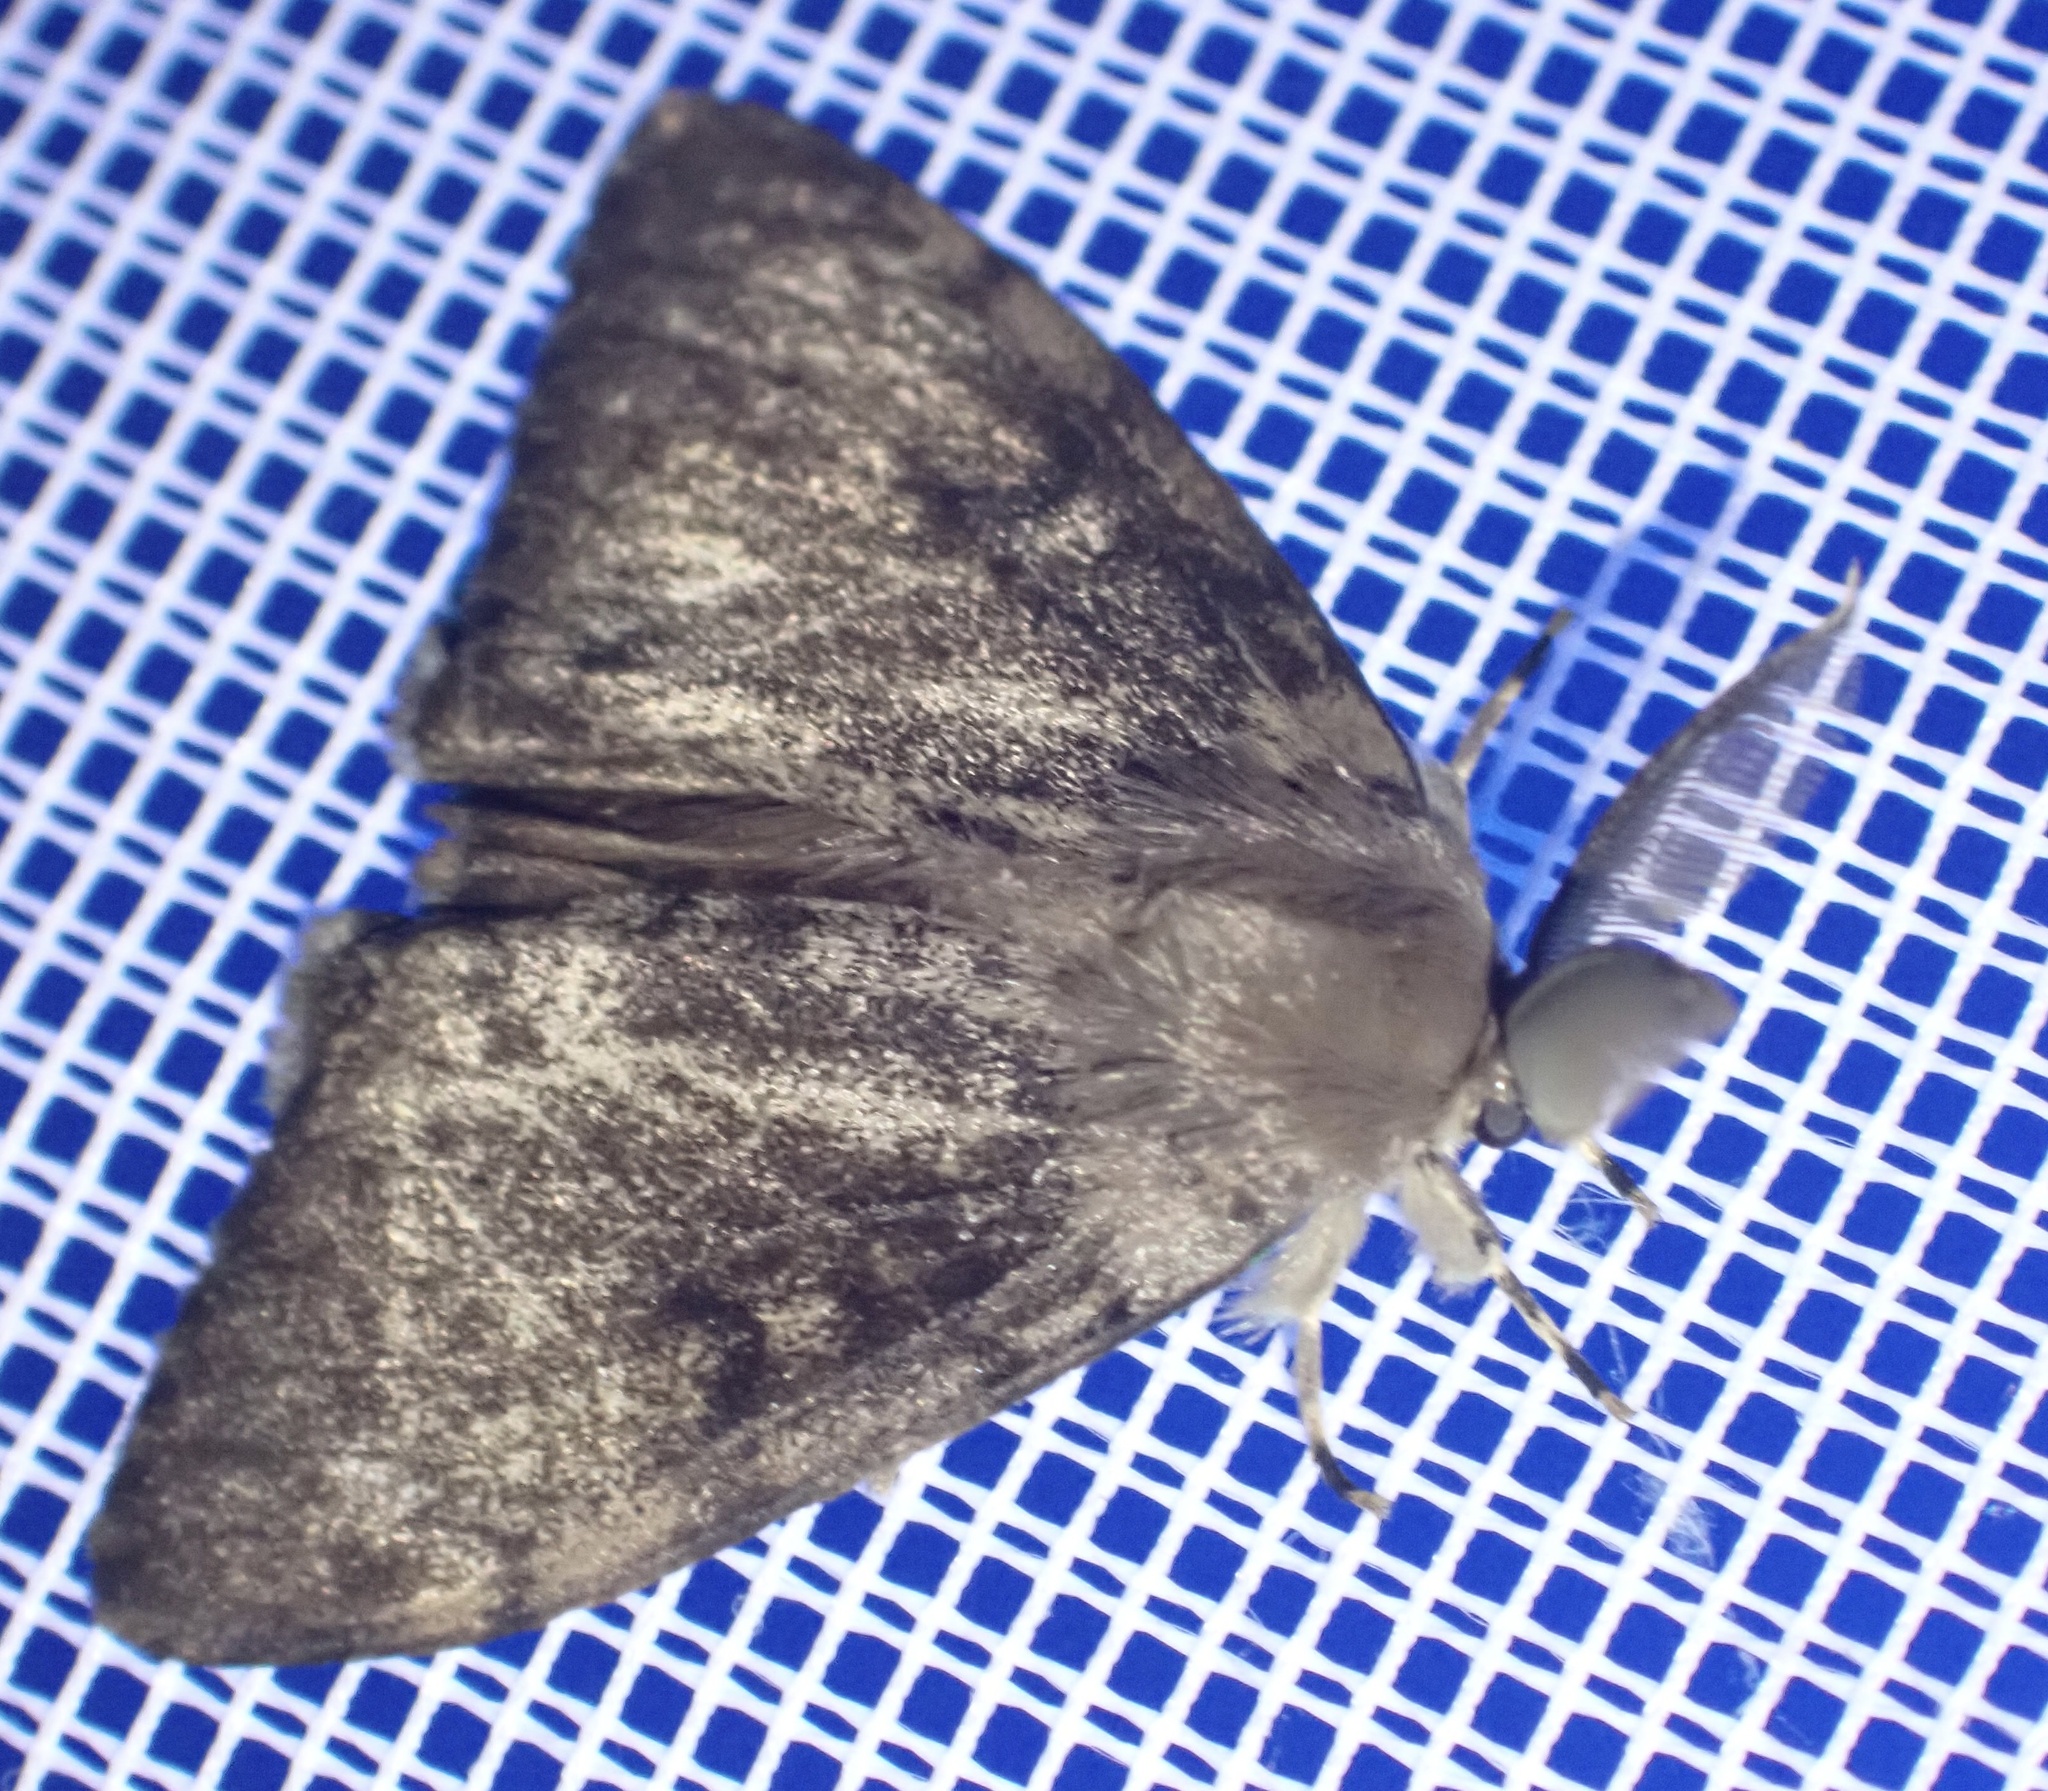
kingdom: Animalia
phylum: Arthropoda
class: Insecta
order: Lepidoptera
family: Erebidae
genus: Lymantria
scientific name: Lymantria dispar
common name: Gypsy moth
